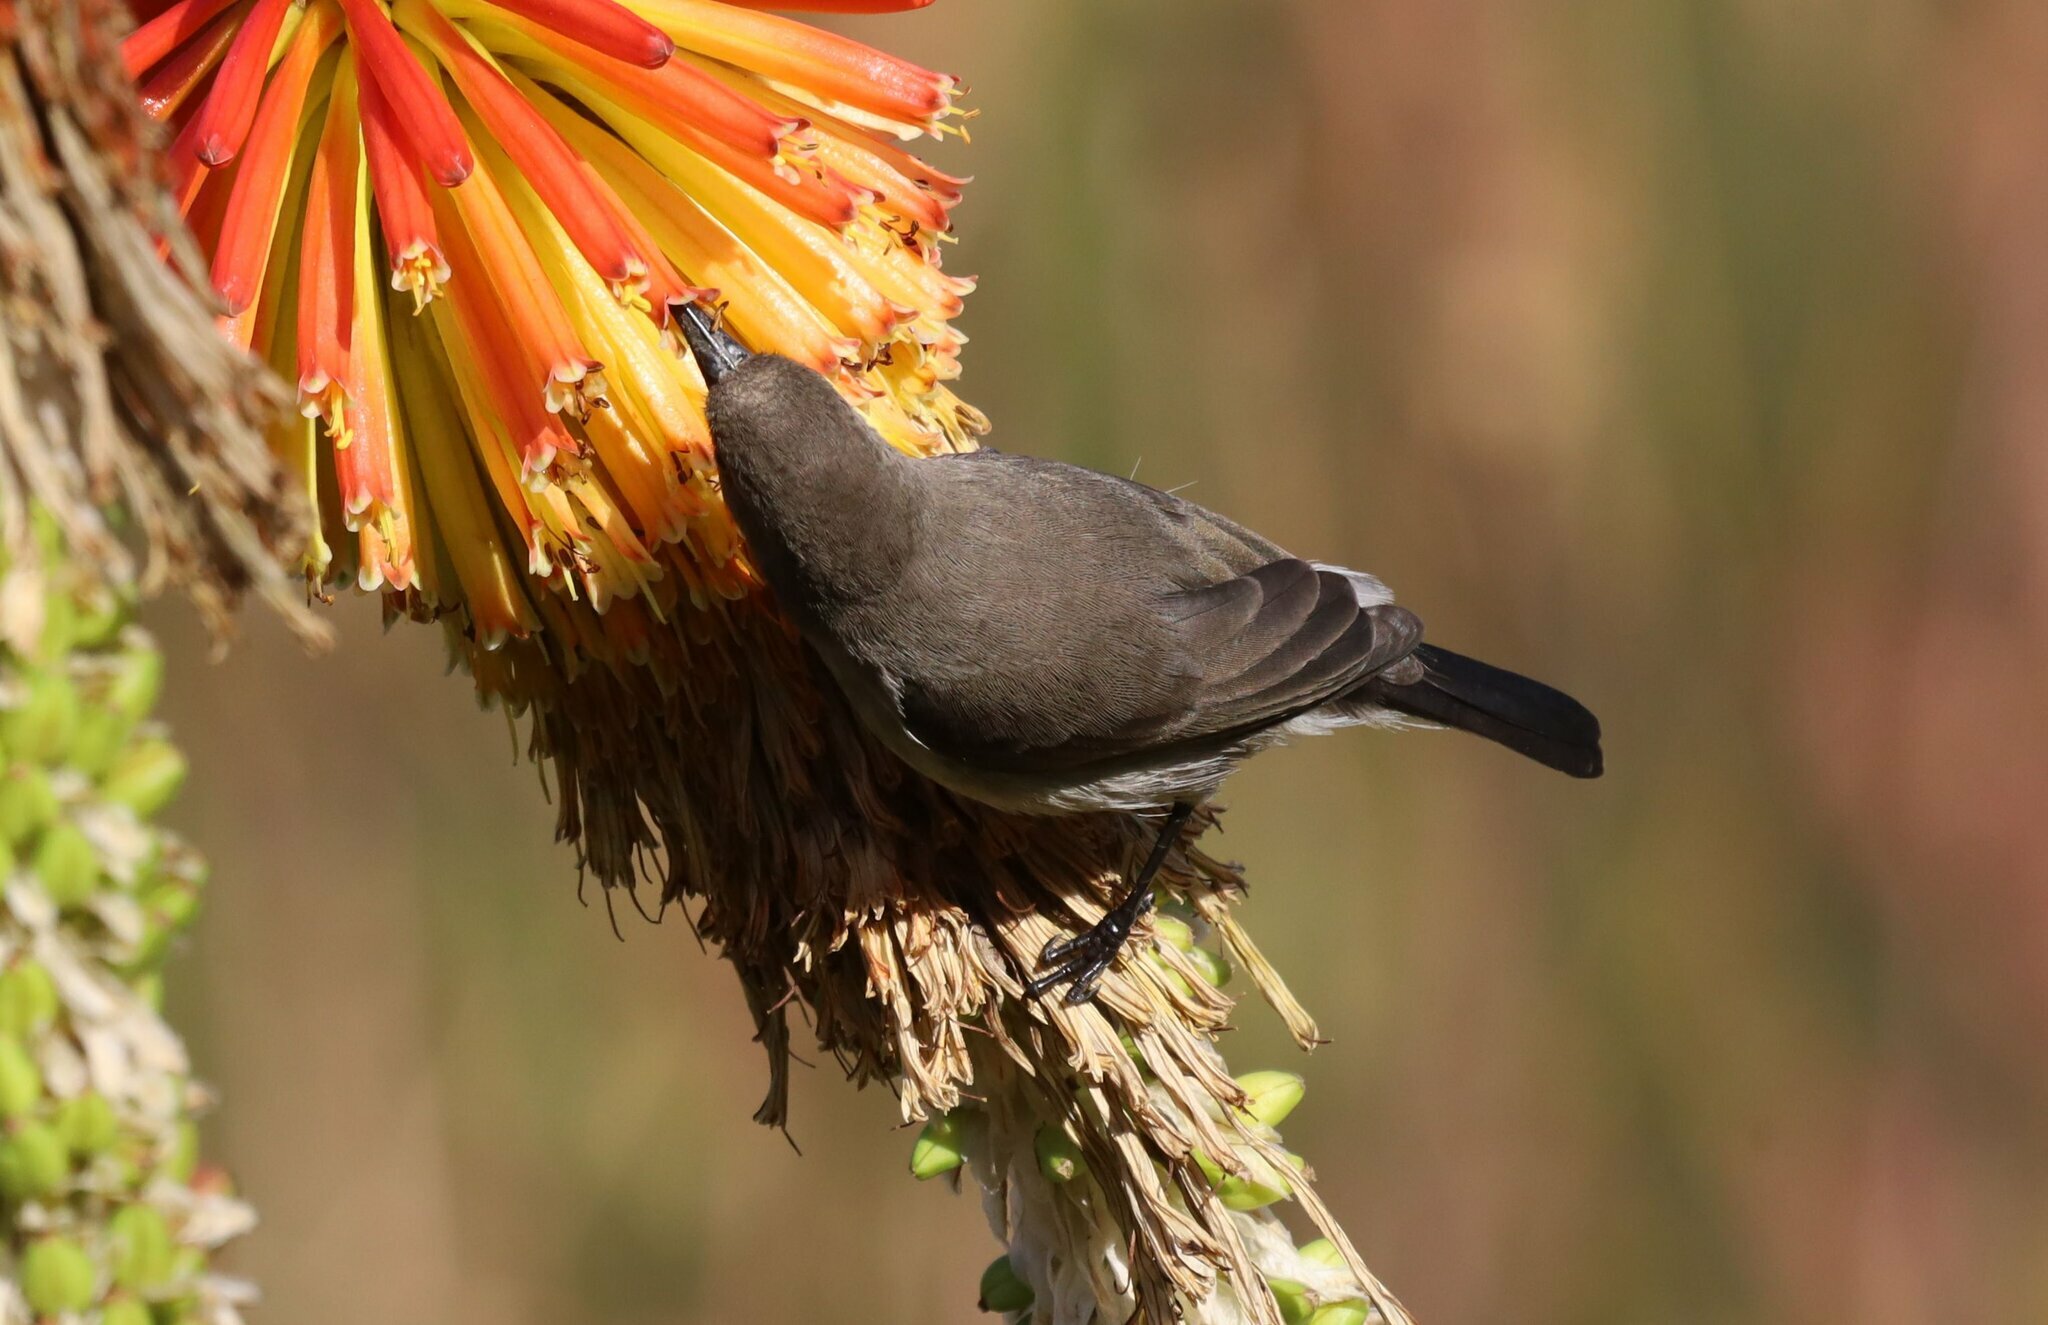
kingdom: Animalia
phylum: Chordata
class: Aves
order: Passeriformes
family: Nectariniidae
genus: Cinnyris
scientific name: Cinnyris talatala
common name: White-bellied sunbird
